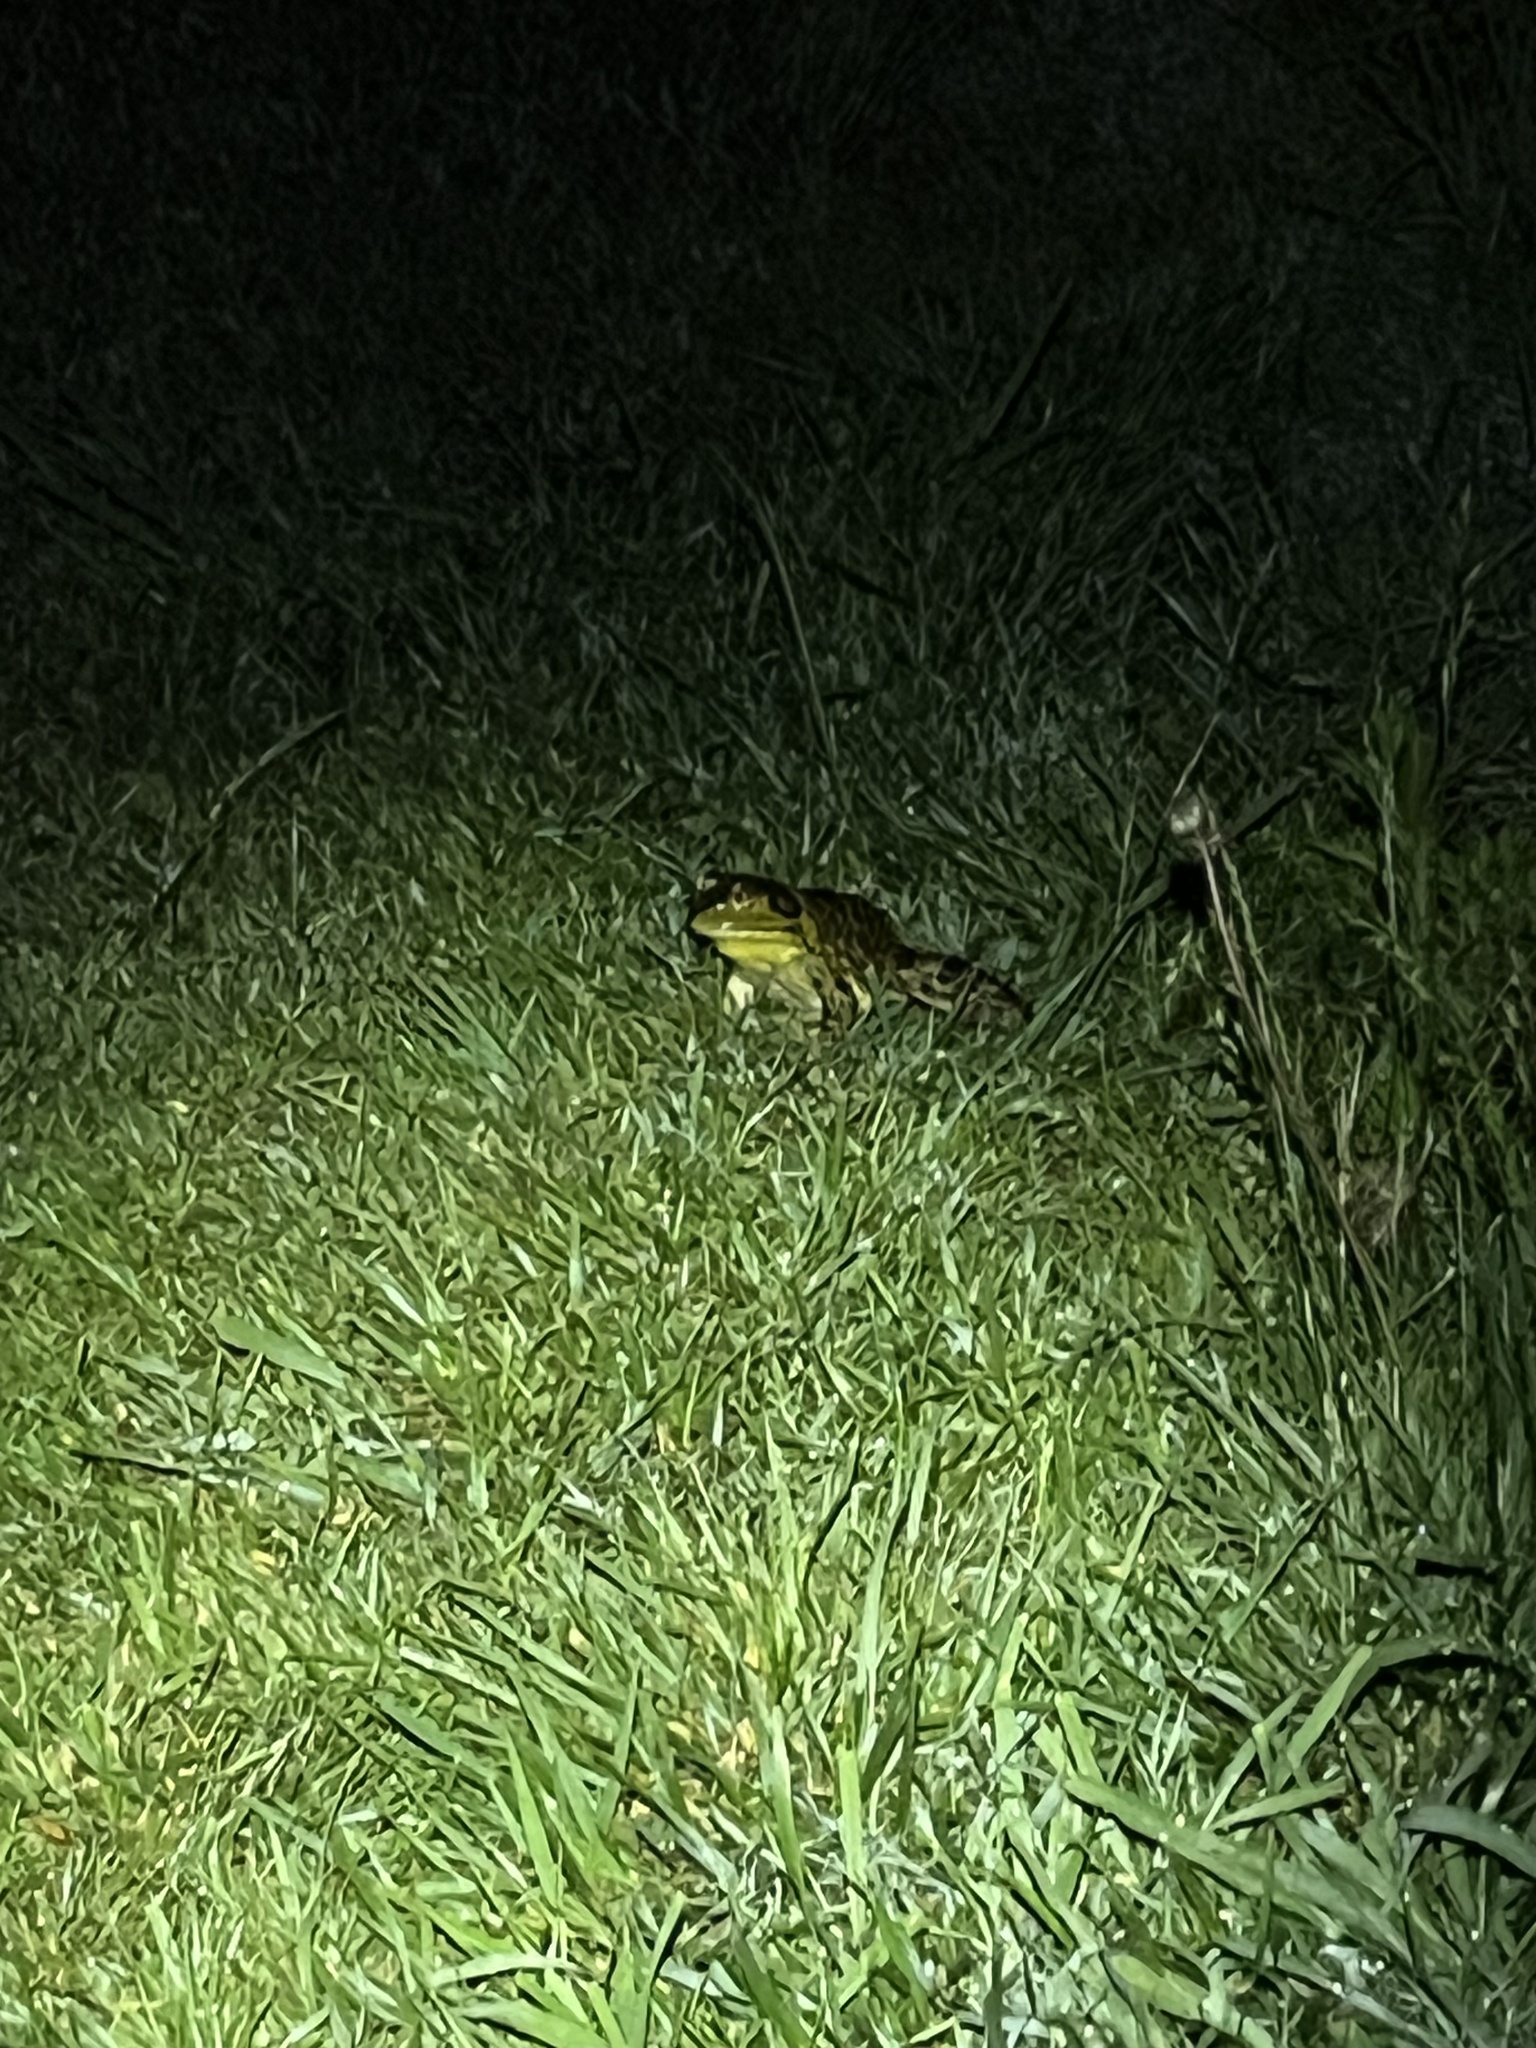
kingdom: Animalia
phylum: Chordata
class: Amphibia
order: Anura
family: Ranidae
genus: Lithobates
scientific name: Lithobates catesbeianus
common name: American bullfrog
